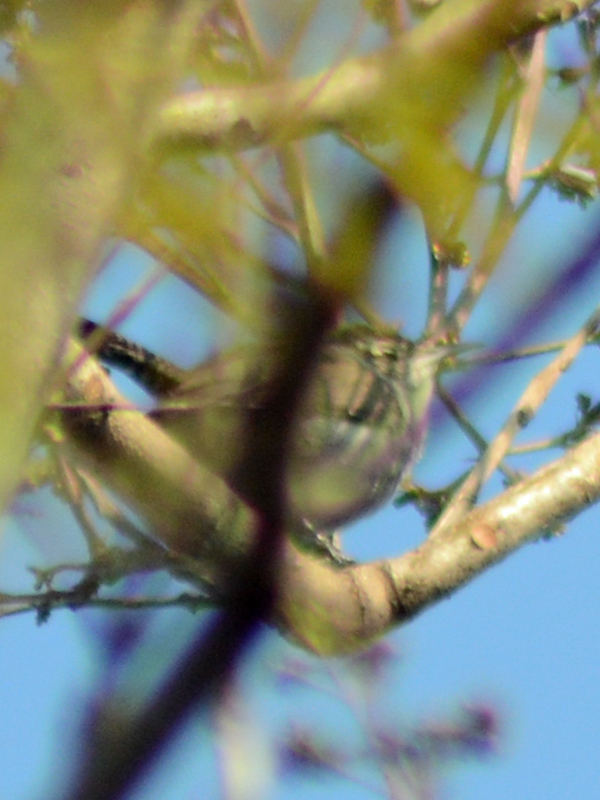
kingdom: Animalia
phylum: Chordata
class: Aves
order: Passeriformes
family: Troglodytidae
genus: Thryomanes
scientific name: Thryomanes bewickii
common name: Bewick's wren
